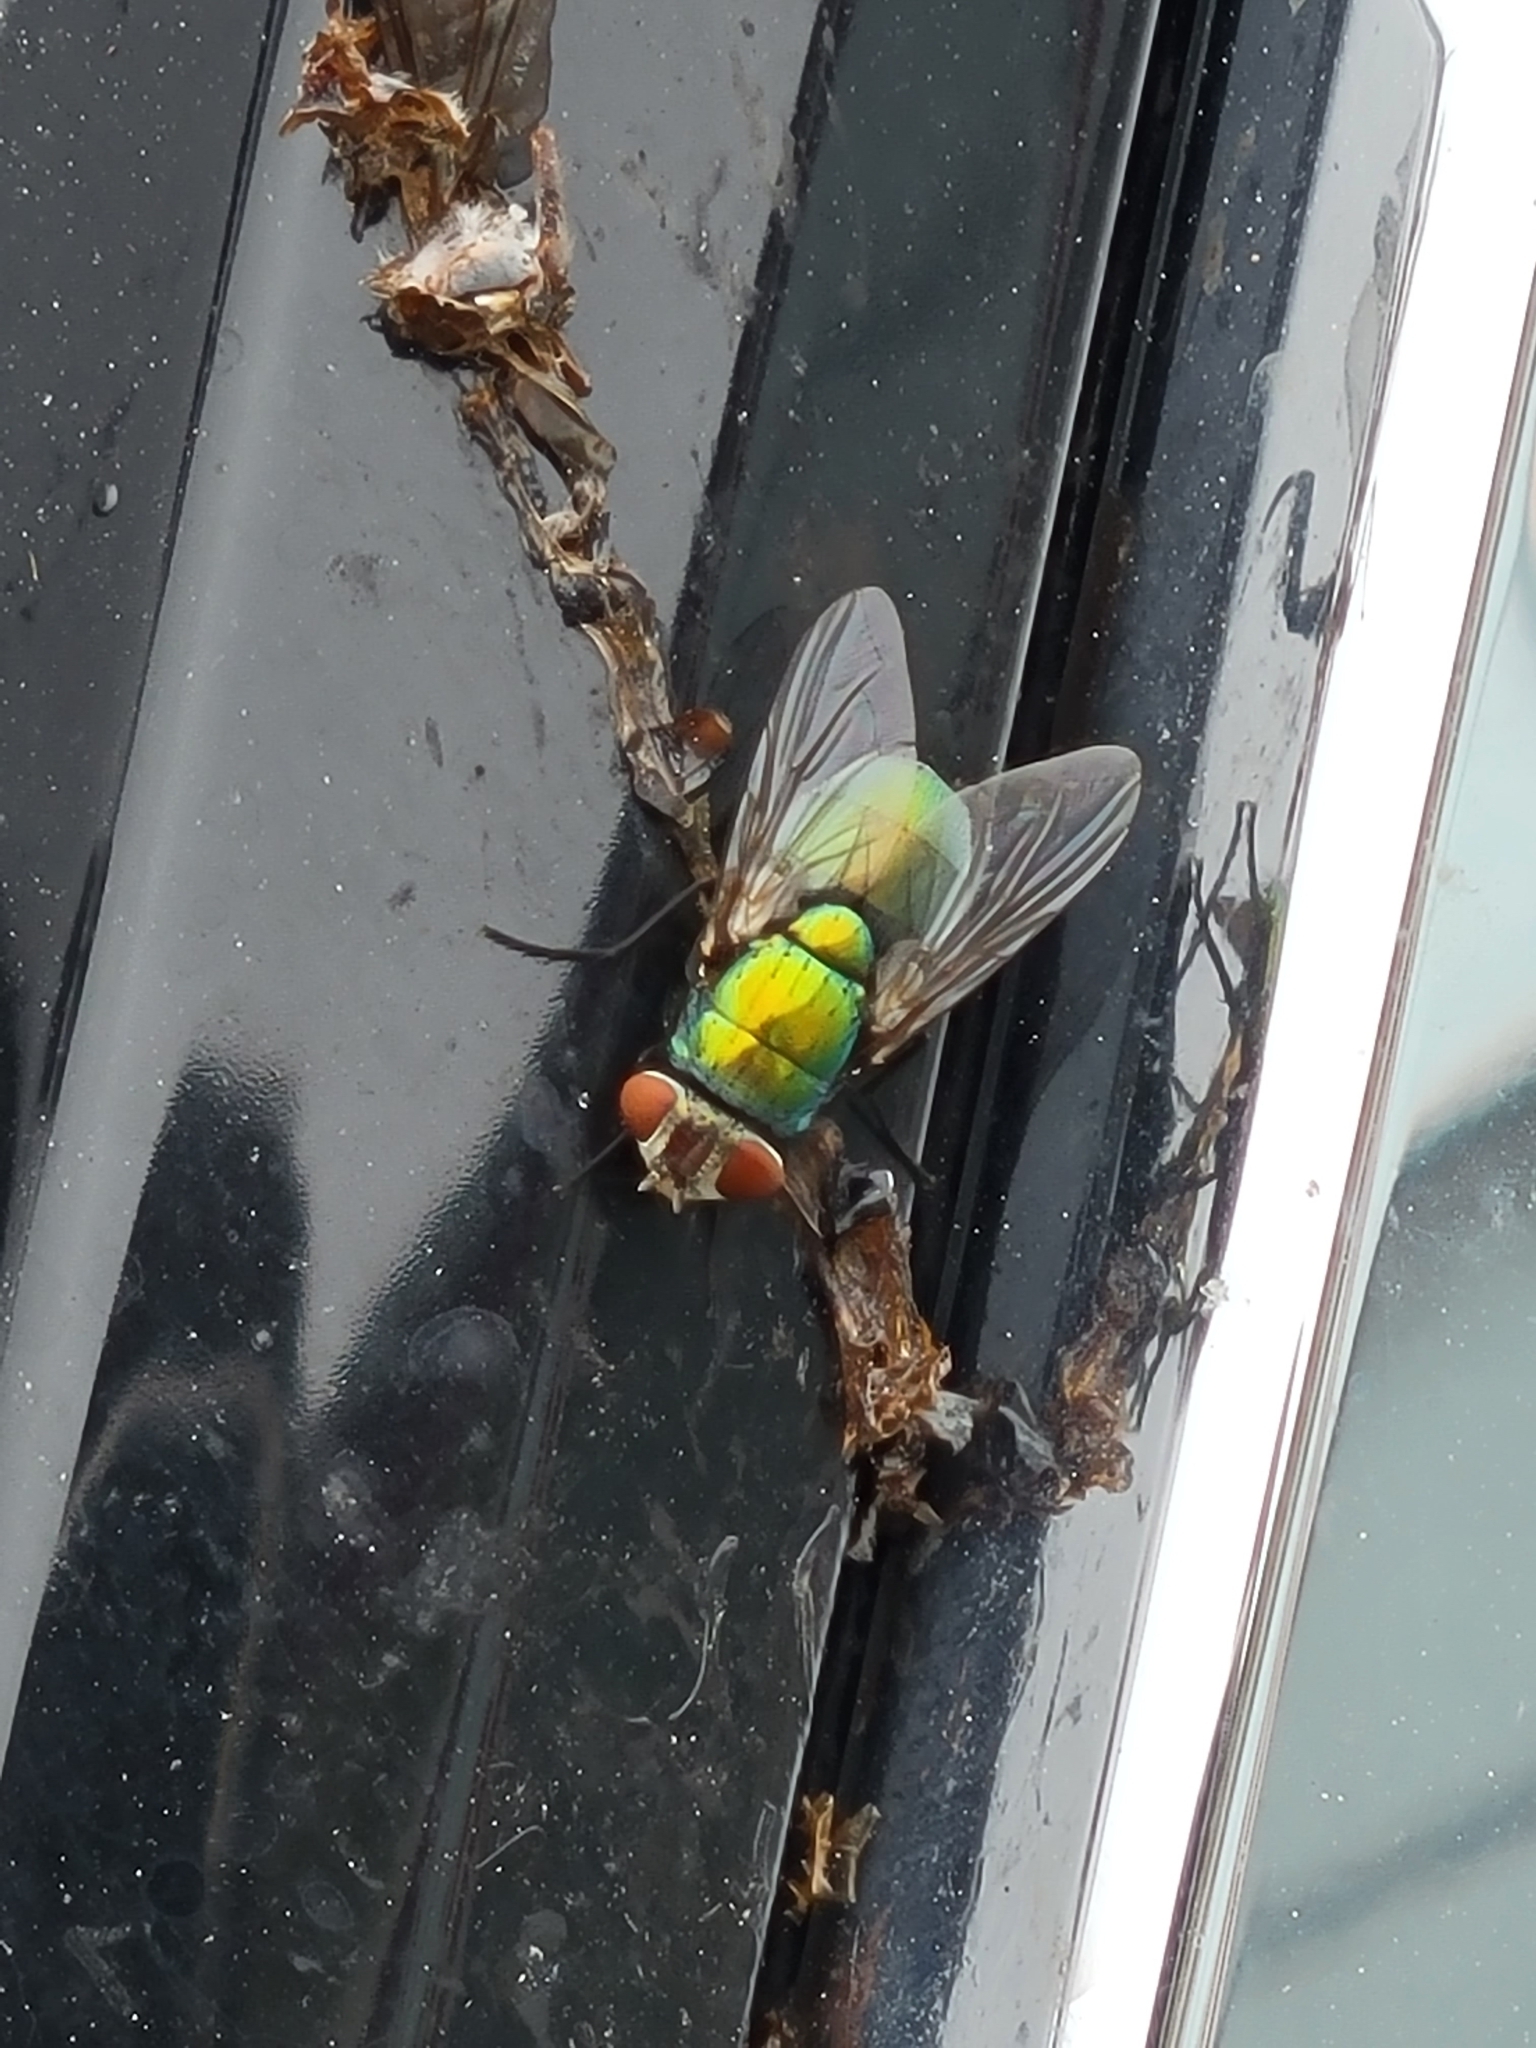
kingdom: Animalia
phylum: Arthropoda
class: Insecta
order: Diptera
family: Calliphoridae
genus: Lucilia
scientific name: Lucilia sericata
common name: Blow fly
